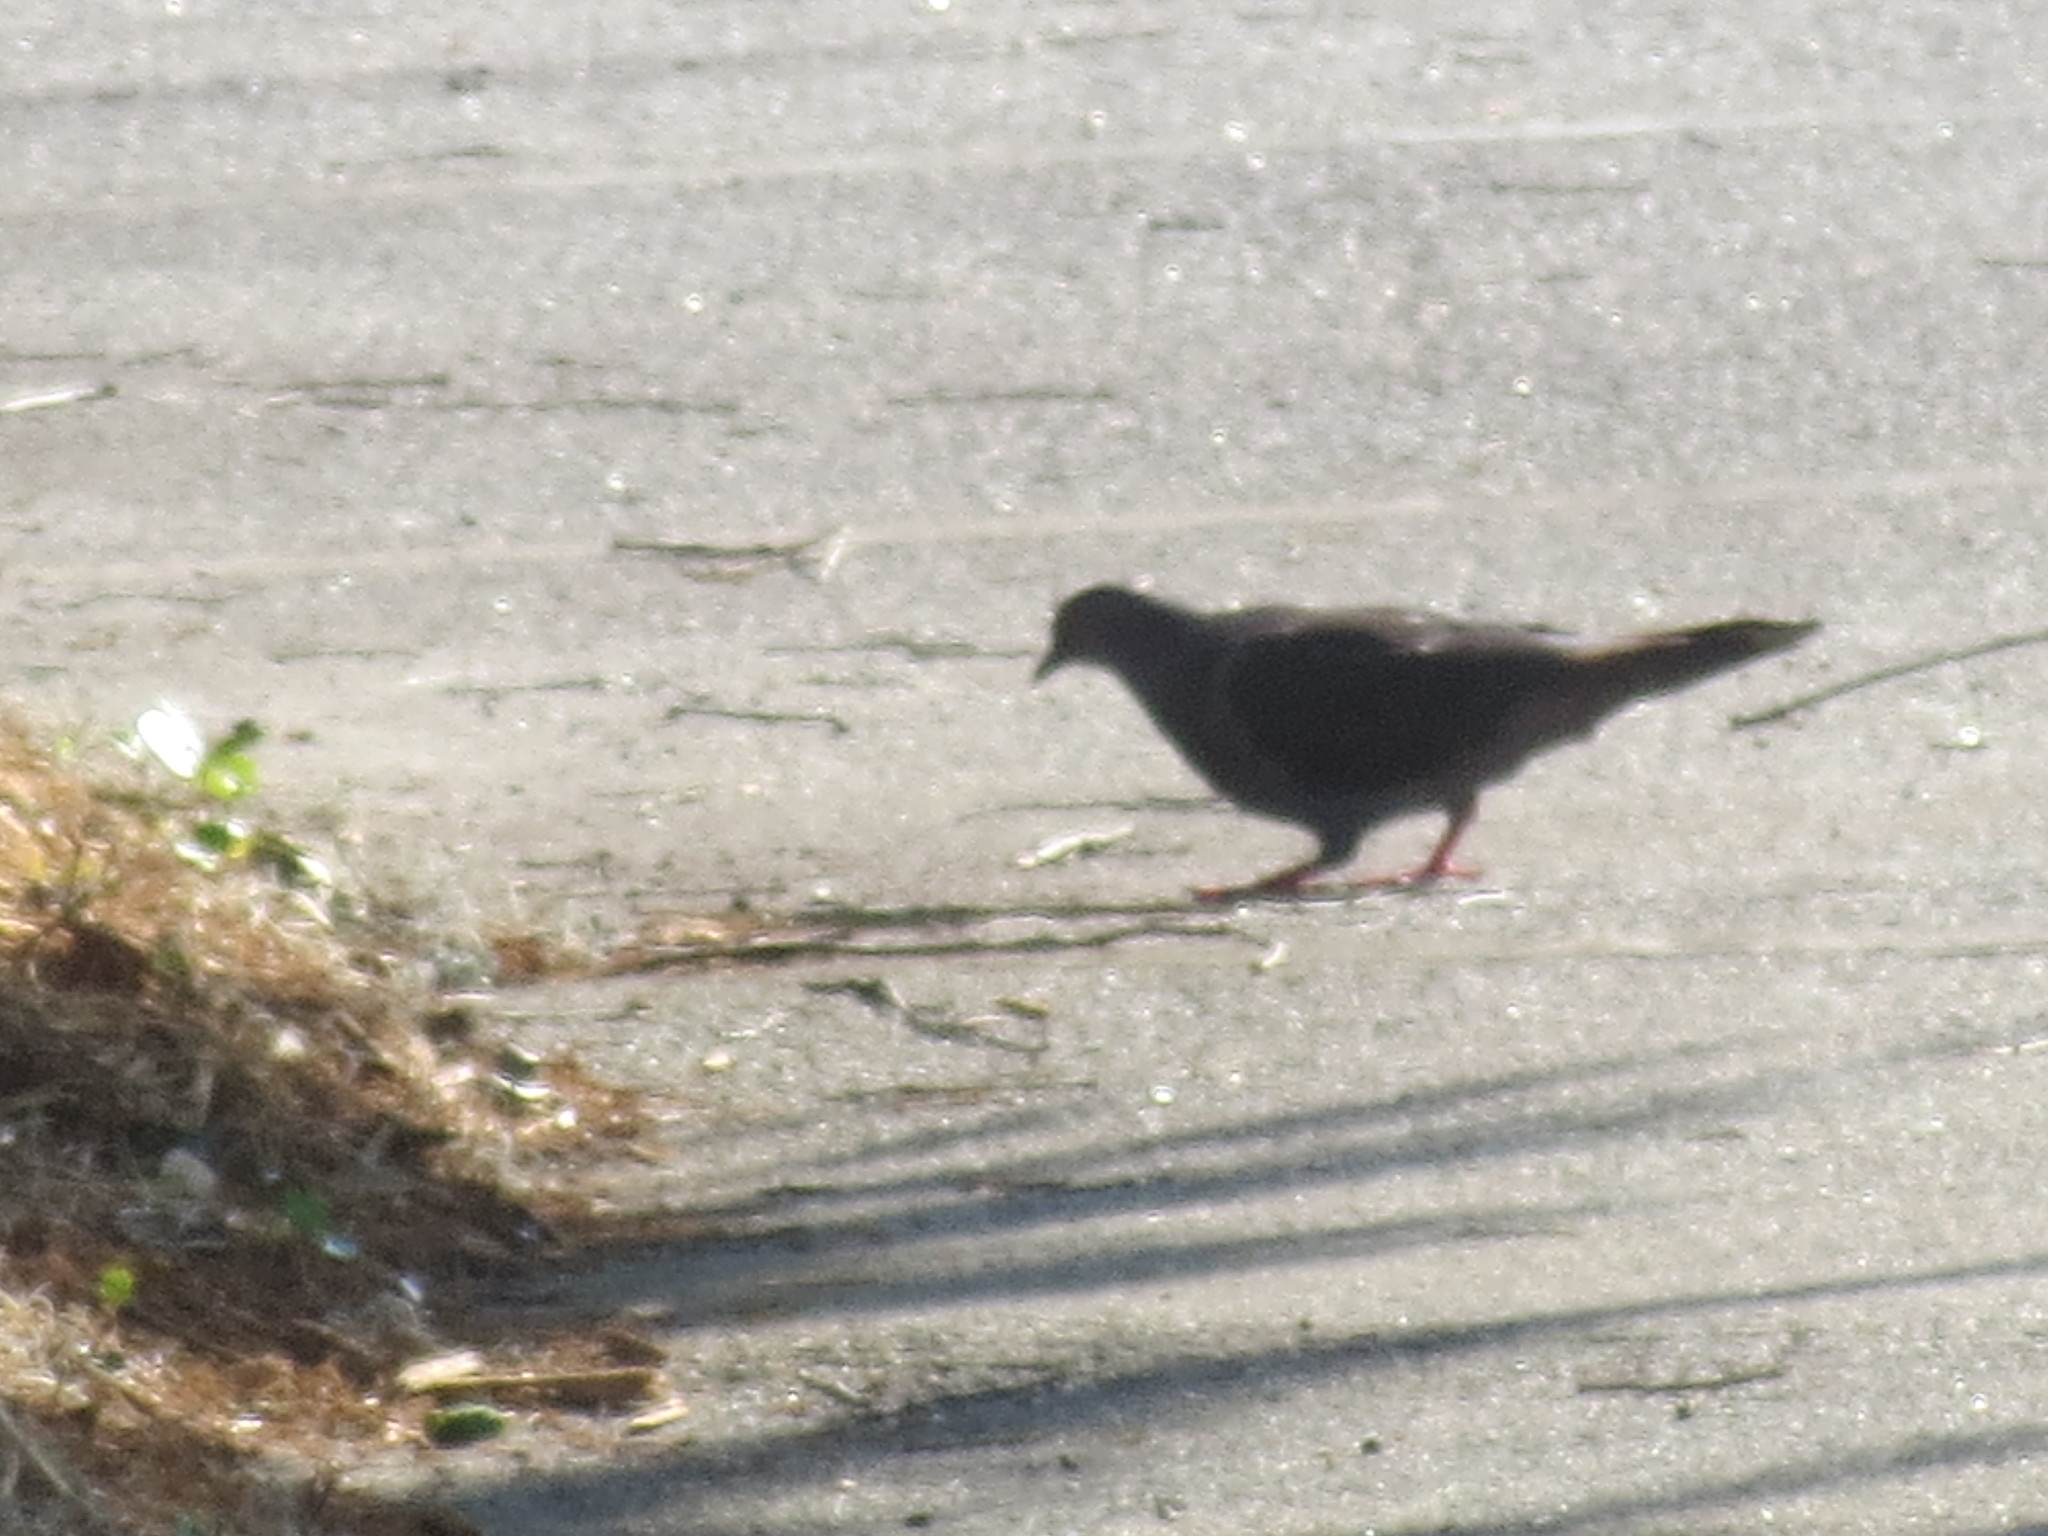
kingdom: Animalia
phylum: Chordata
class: Aves
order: Columbiformes
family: Columbidae
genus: Columba
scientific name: Columba livia
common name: Rock pigeon
